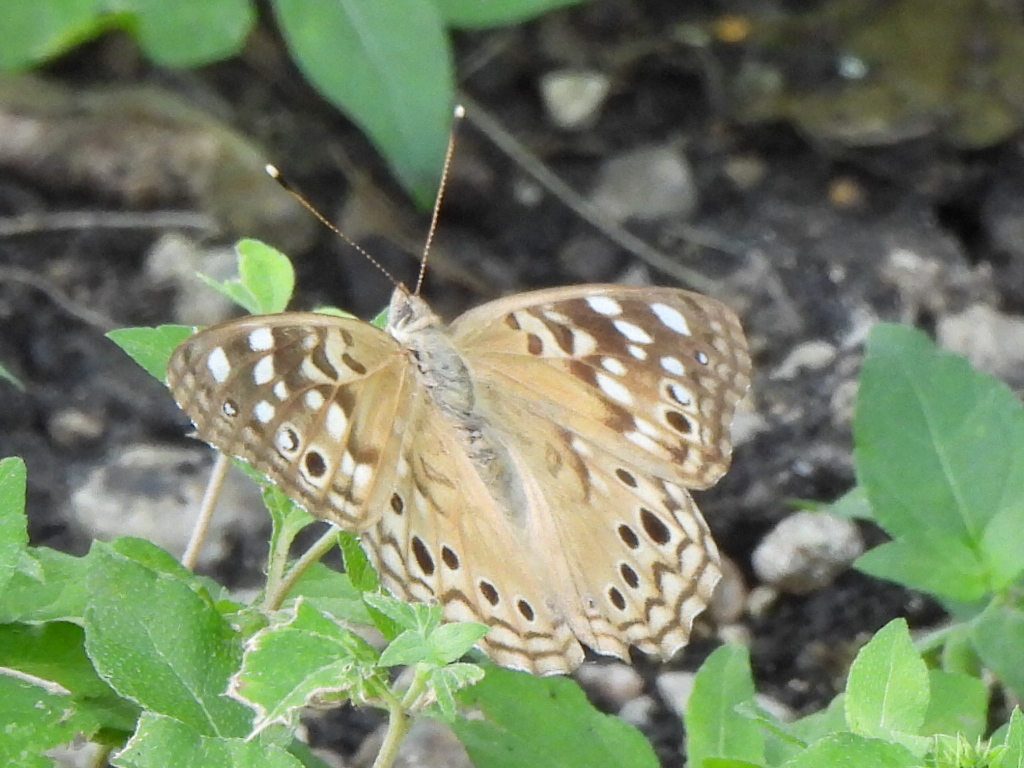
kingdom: Animalia
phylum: Arthropoda
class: Insecta
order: Lepidoptera
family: Nymphalidae
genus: Asterocampa
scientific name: Asterocampa celtis
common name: Hackberry emperor
